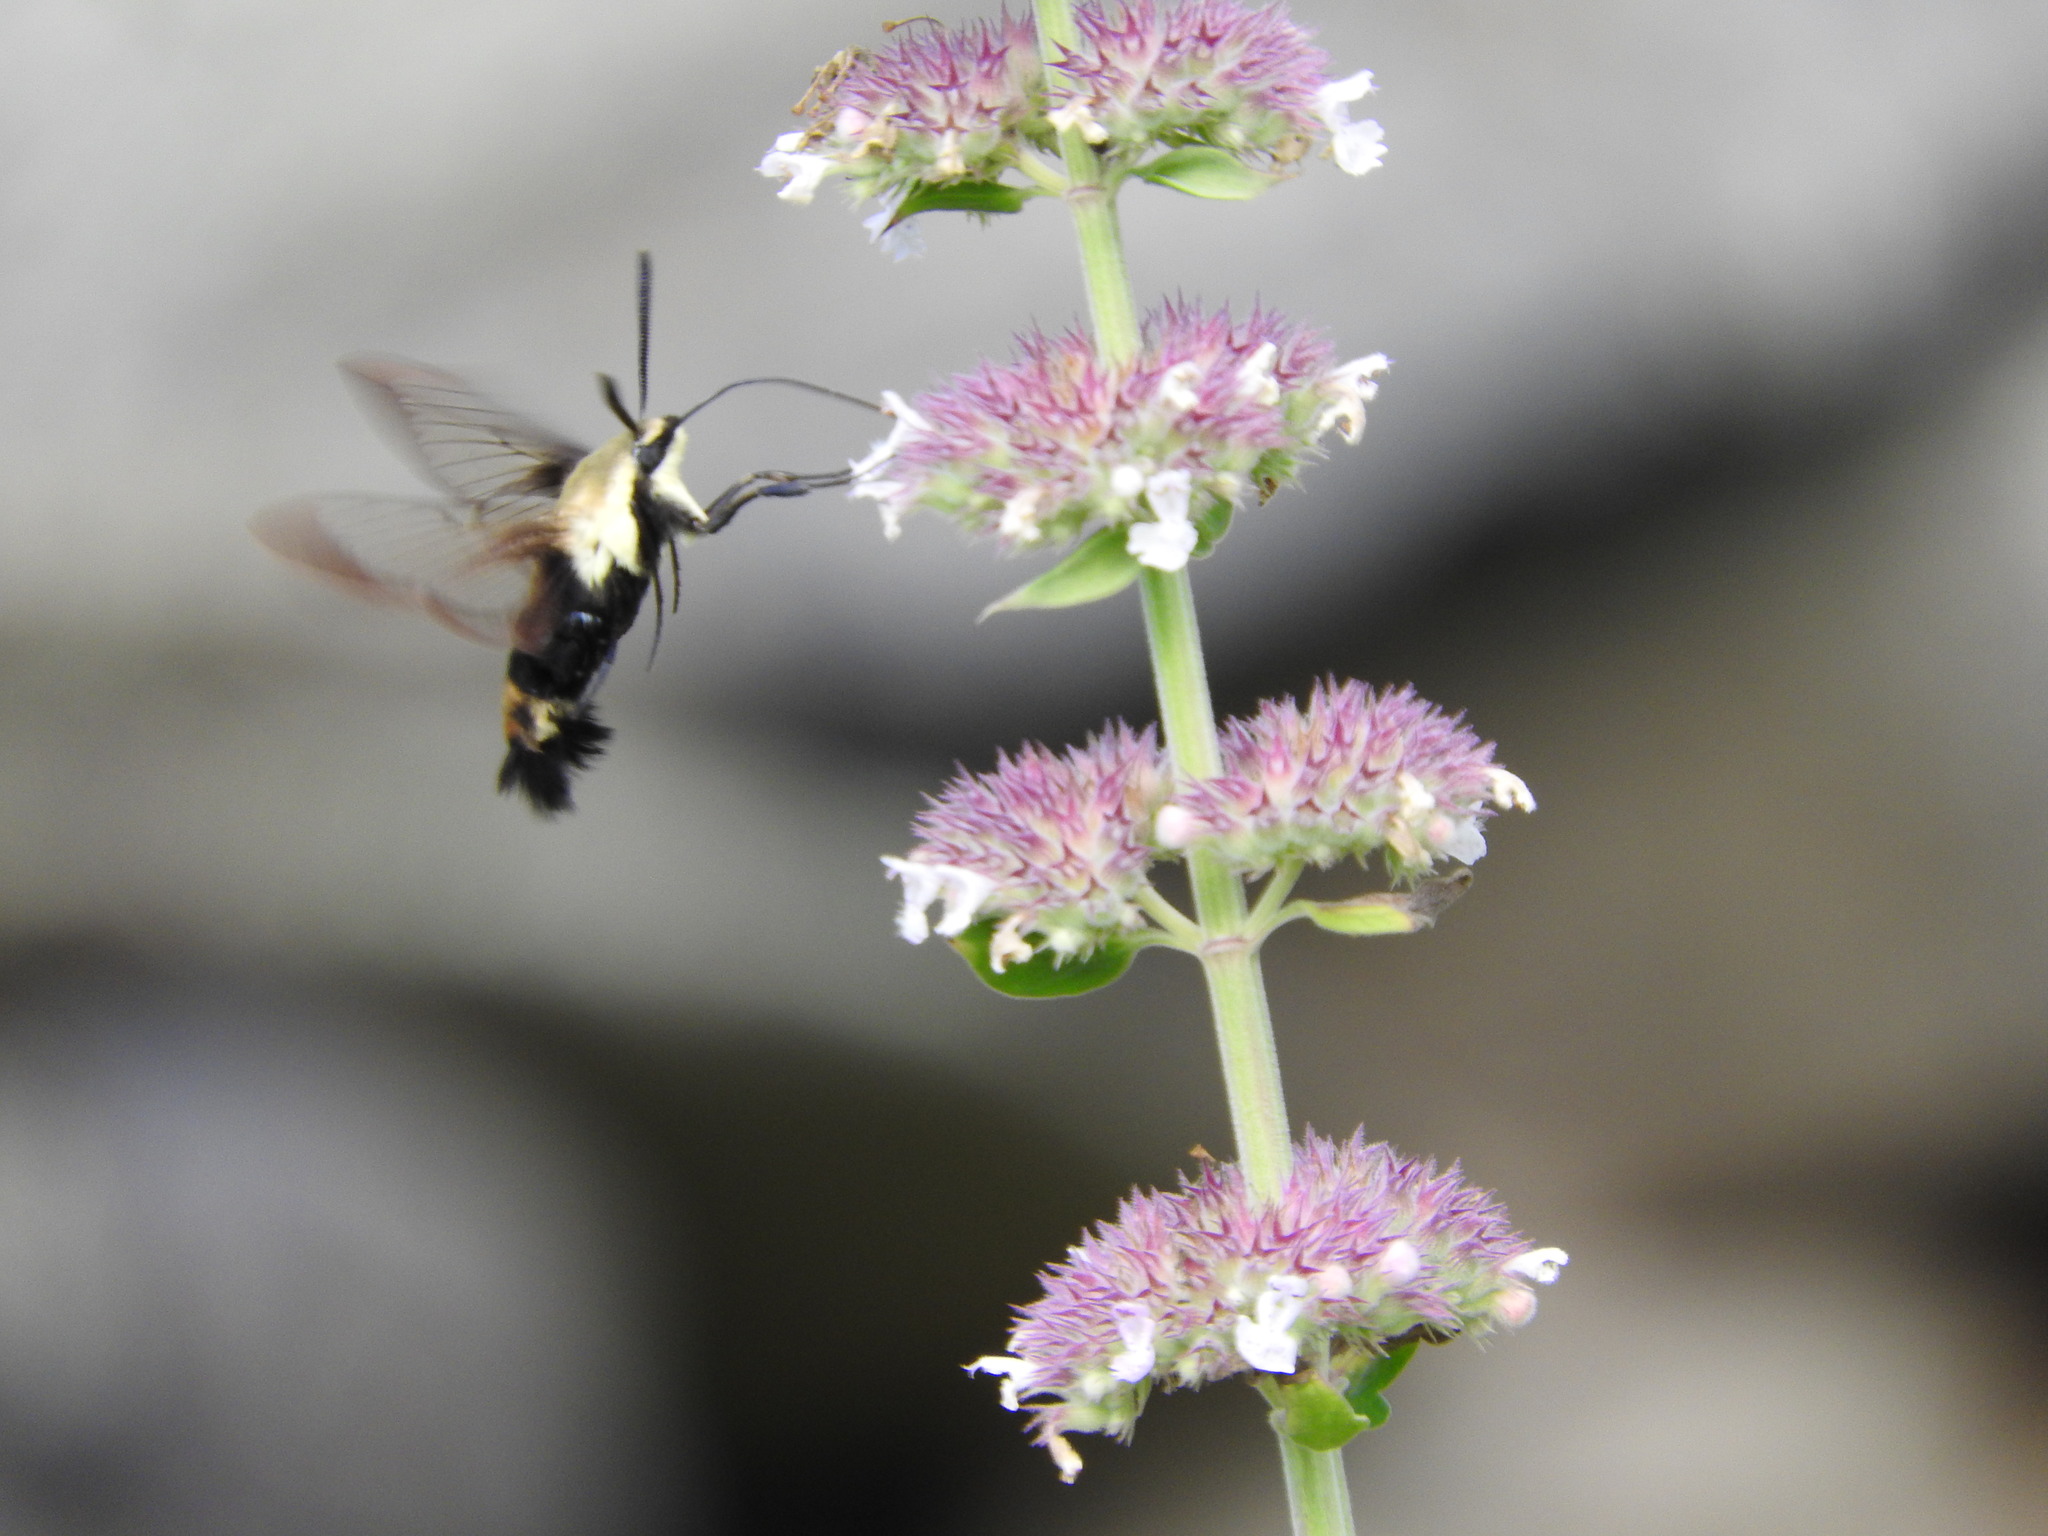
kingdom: Animalia
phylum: Arthropoda
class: Insecta
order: Lepidoptera
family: Sphingidae
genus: Hemaris
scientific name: Hemaris diffinis
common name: Bumblebee moth
